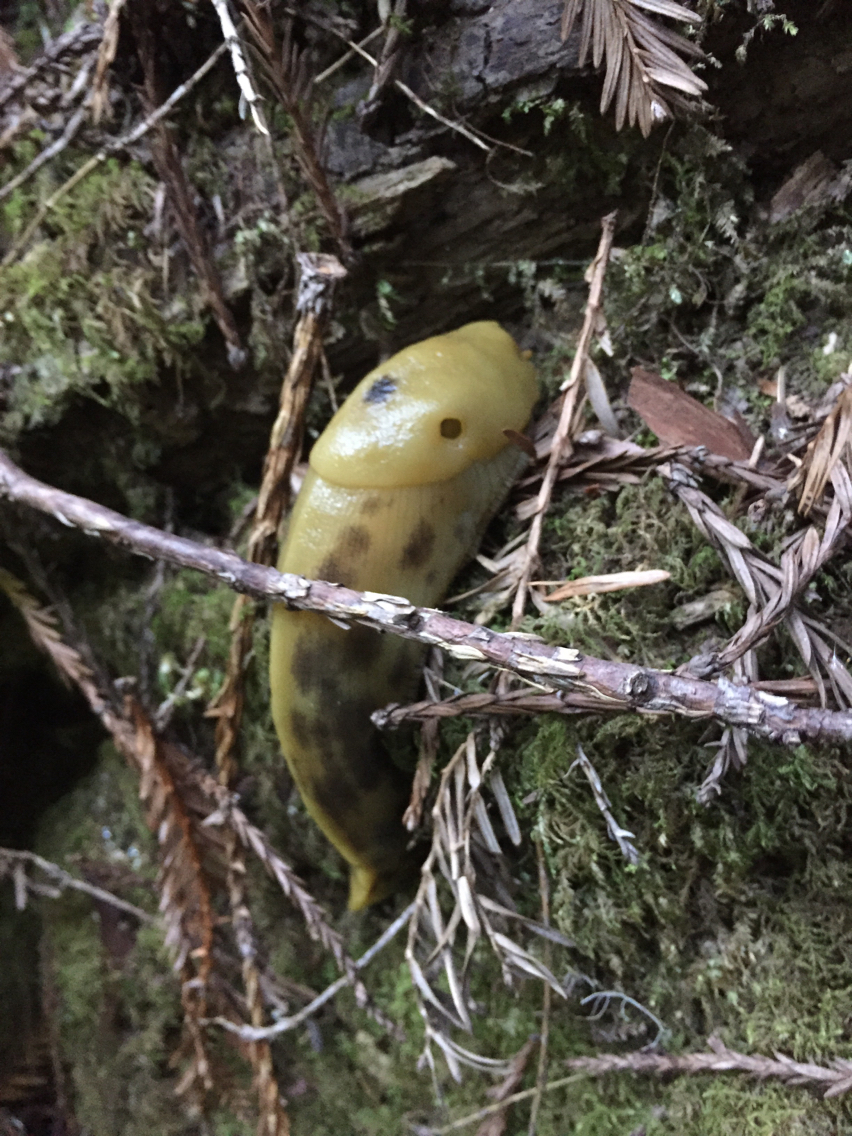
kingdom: Animalia
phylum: Mollusca
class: Gastropoda
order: Stylommatophora
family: Ariolimacidae
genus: Ariolimax
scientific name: Ariolimax buttoni
